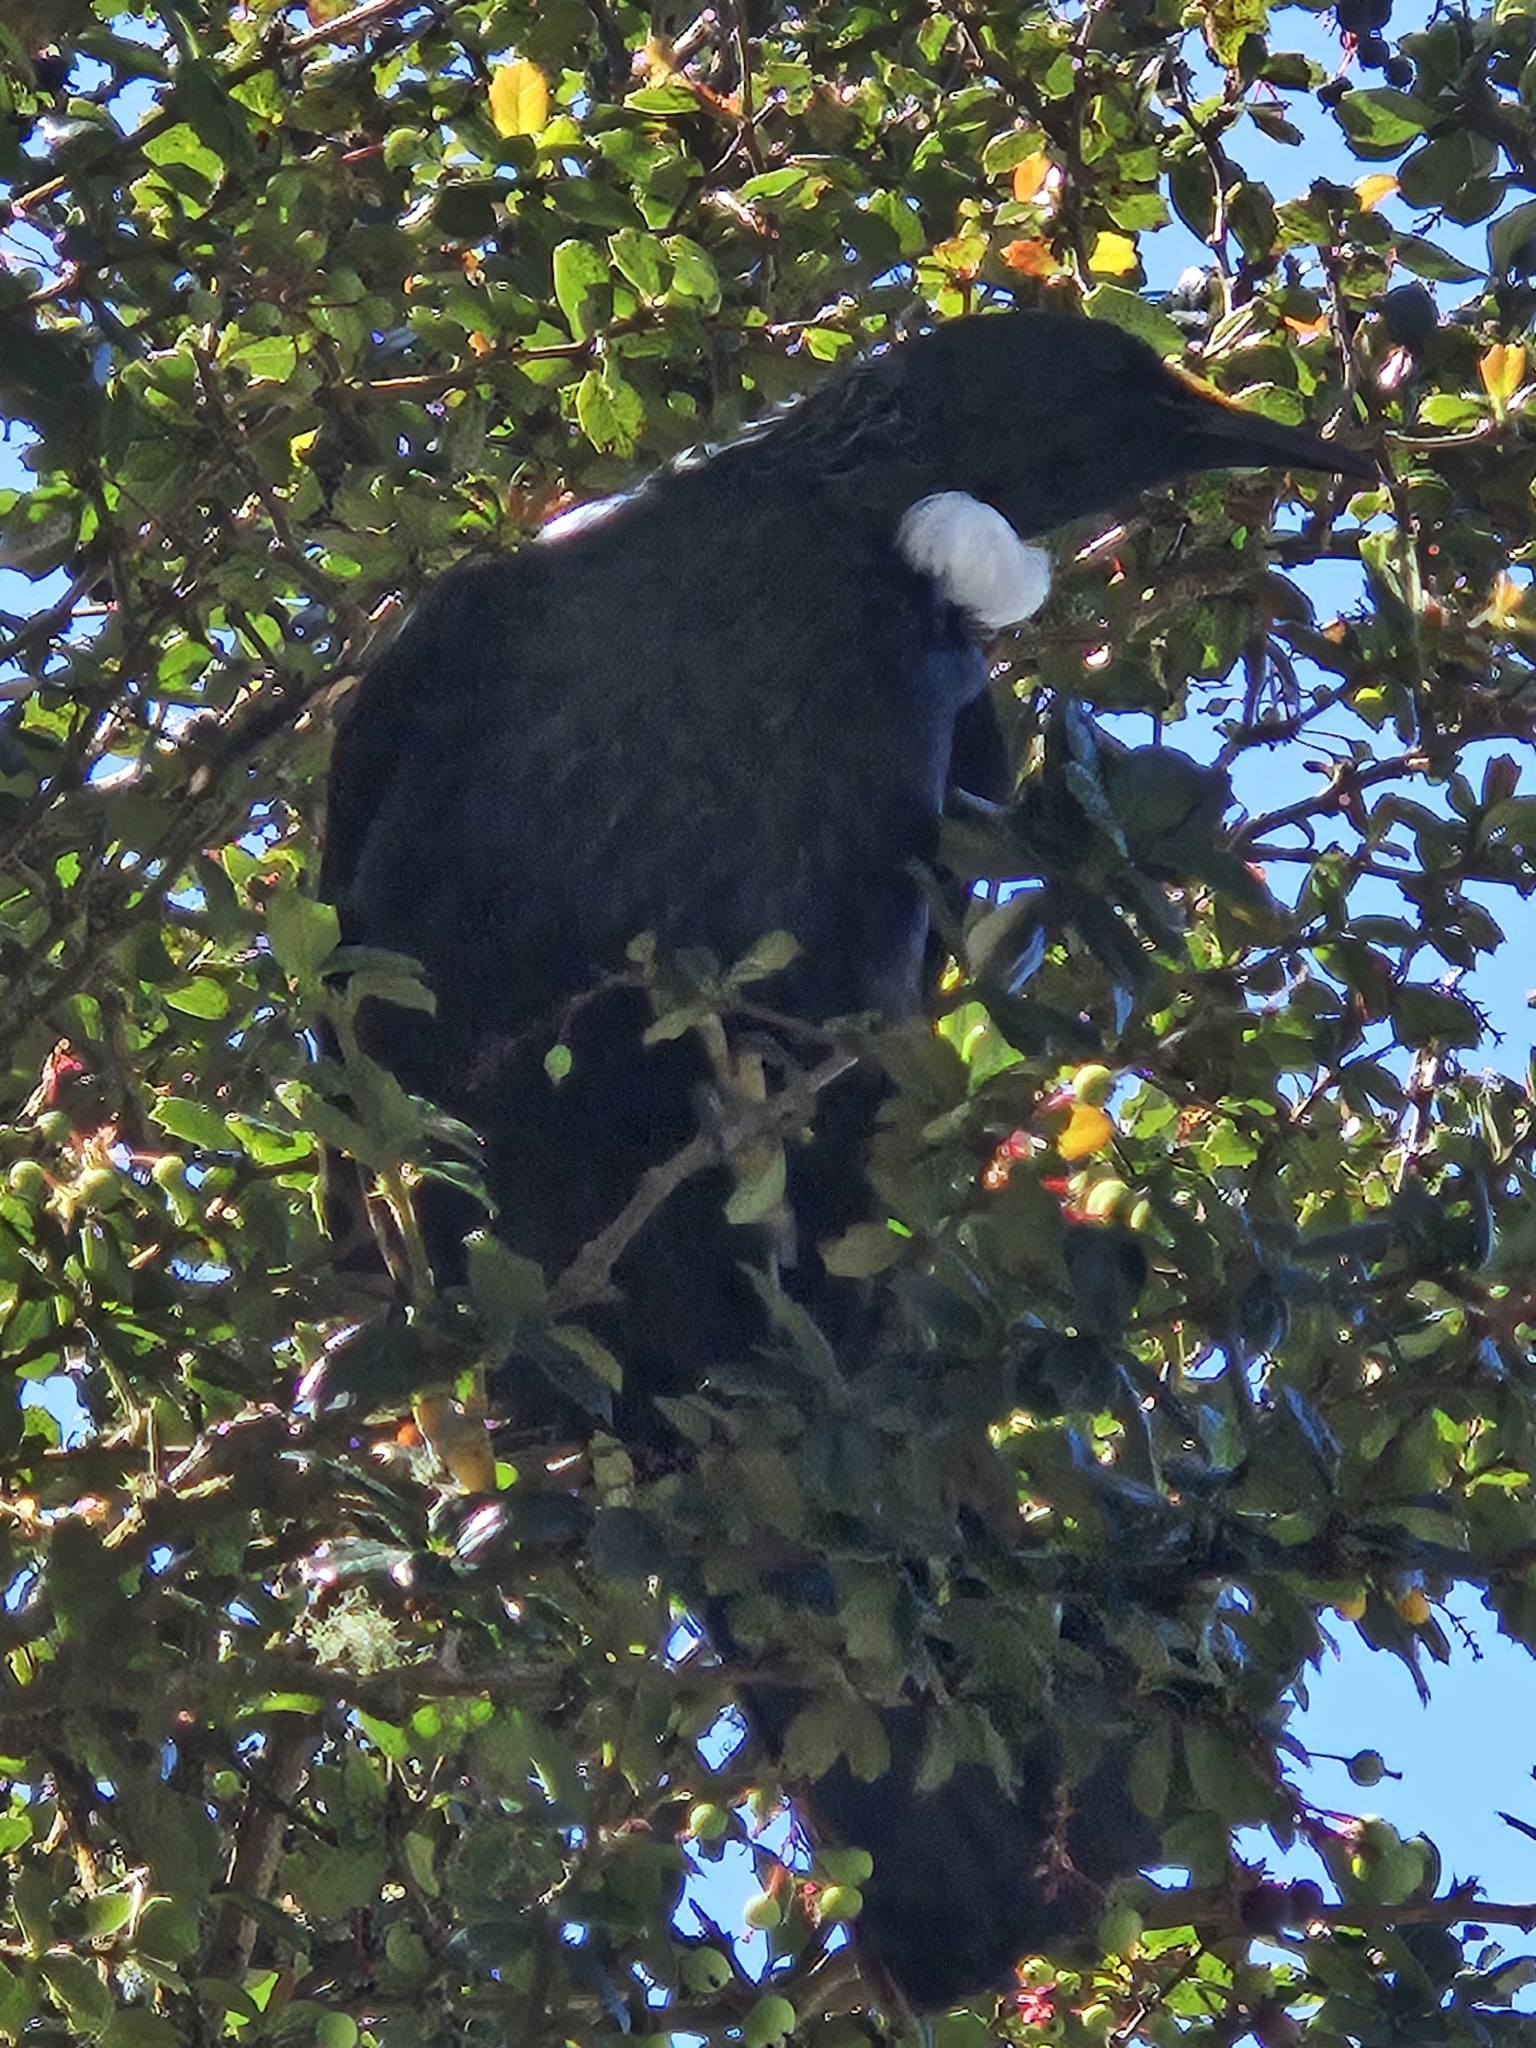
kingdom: Animalia
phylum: Chordata
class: Aves
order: Passeriformes
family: Meliphagidae
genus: Prosthemadera
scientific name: Prosthemadera novaeseelandiae
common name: Tui
